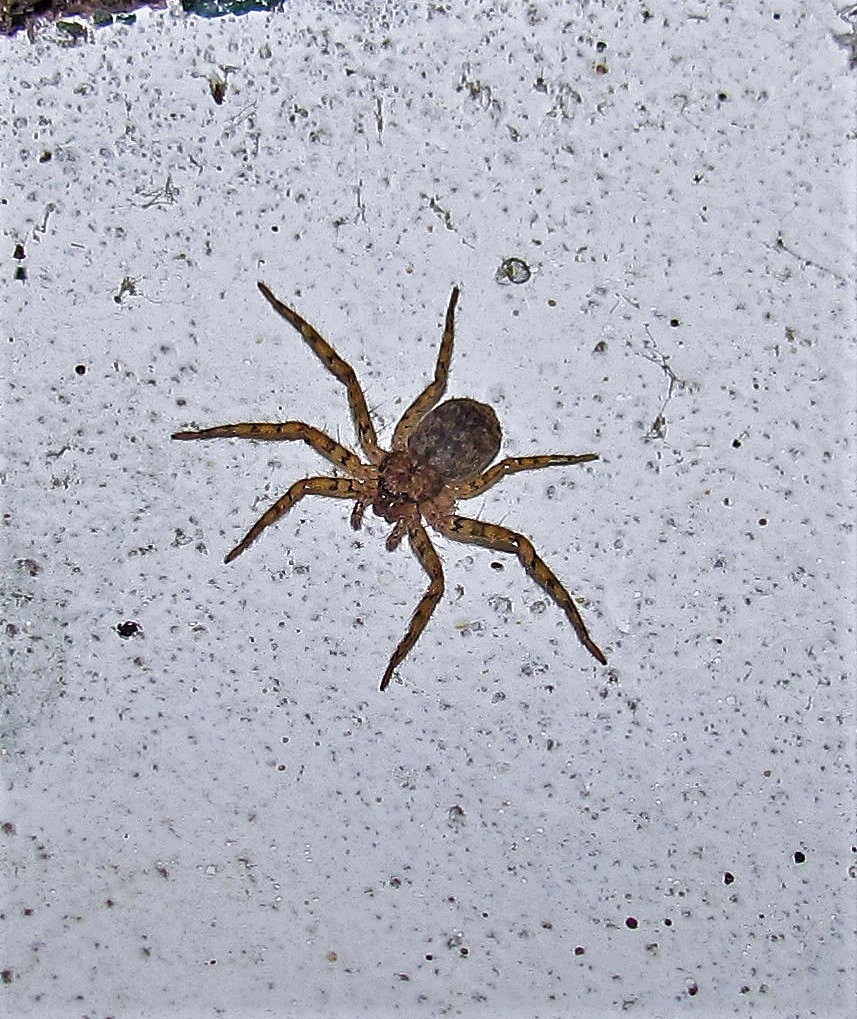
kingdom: Animalia
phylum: Arthropoda
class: Arachnida
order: Araneae
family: Selenopidae
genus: Selenops
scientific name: Selenops
